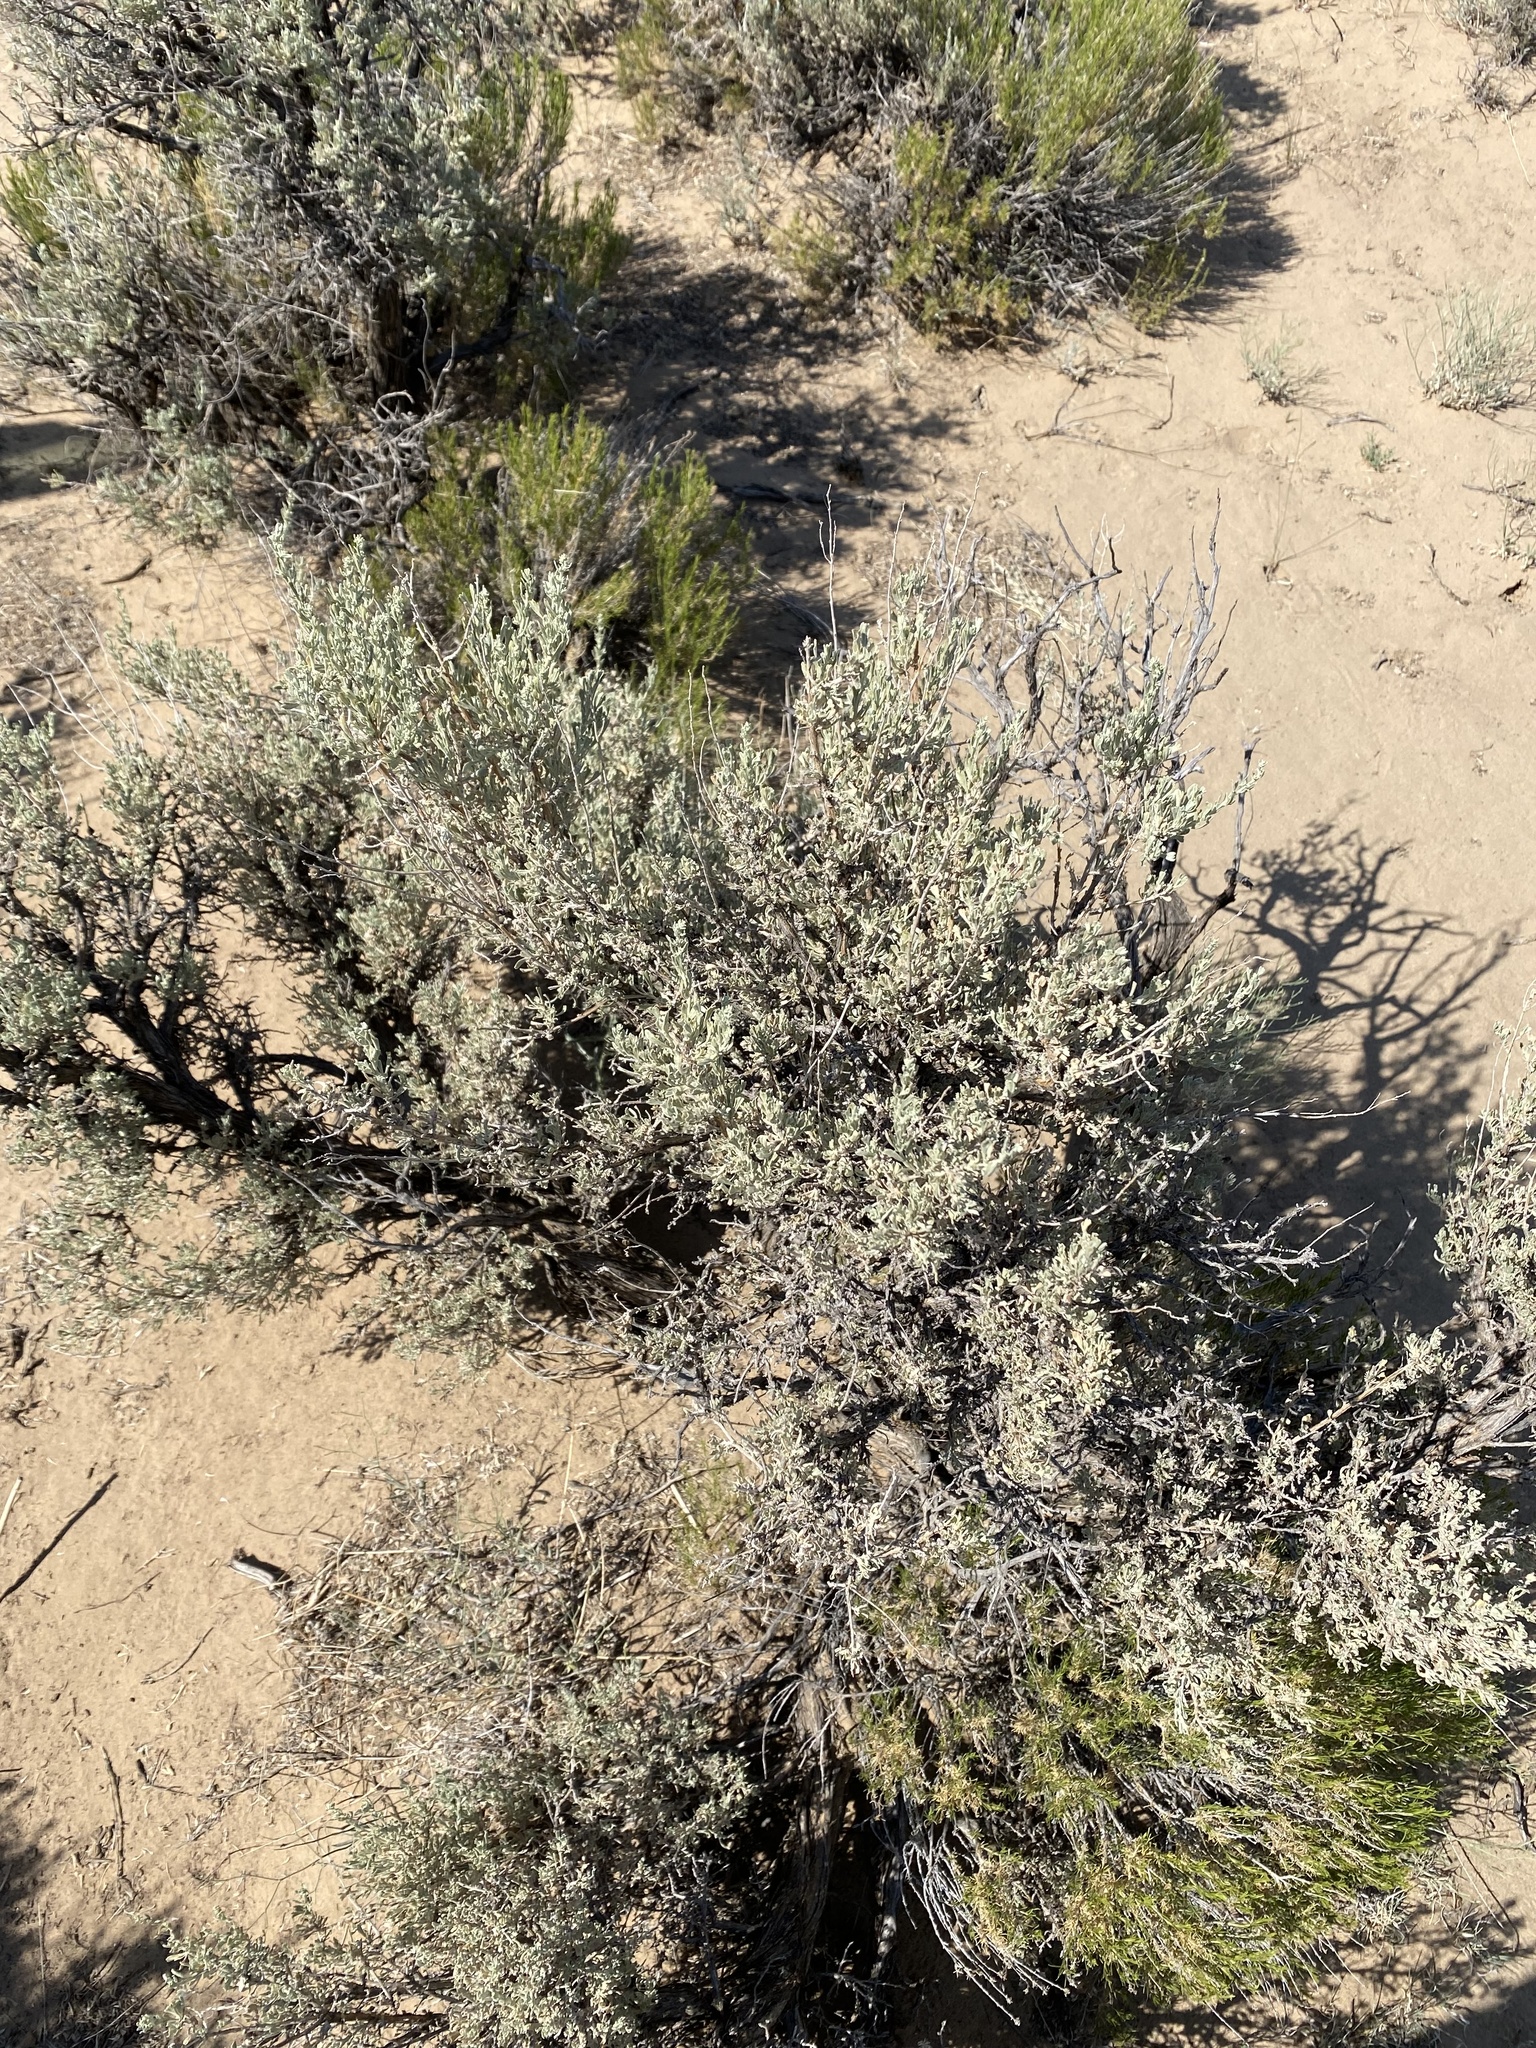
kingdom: Plantae
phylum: Tracheophyta
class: Magnoliopsida
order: Asterales
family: Asteraceae
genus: Artemisia
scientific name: Artemisia tridentata
